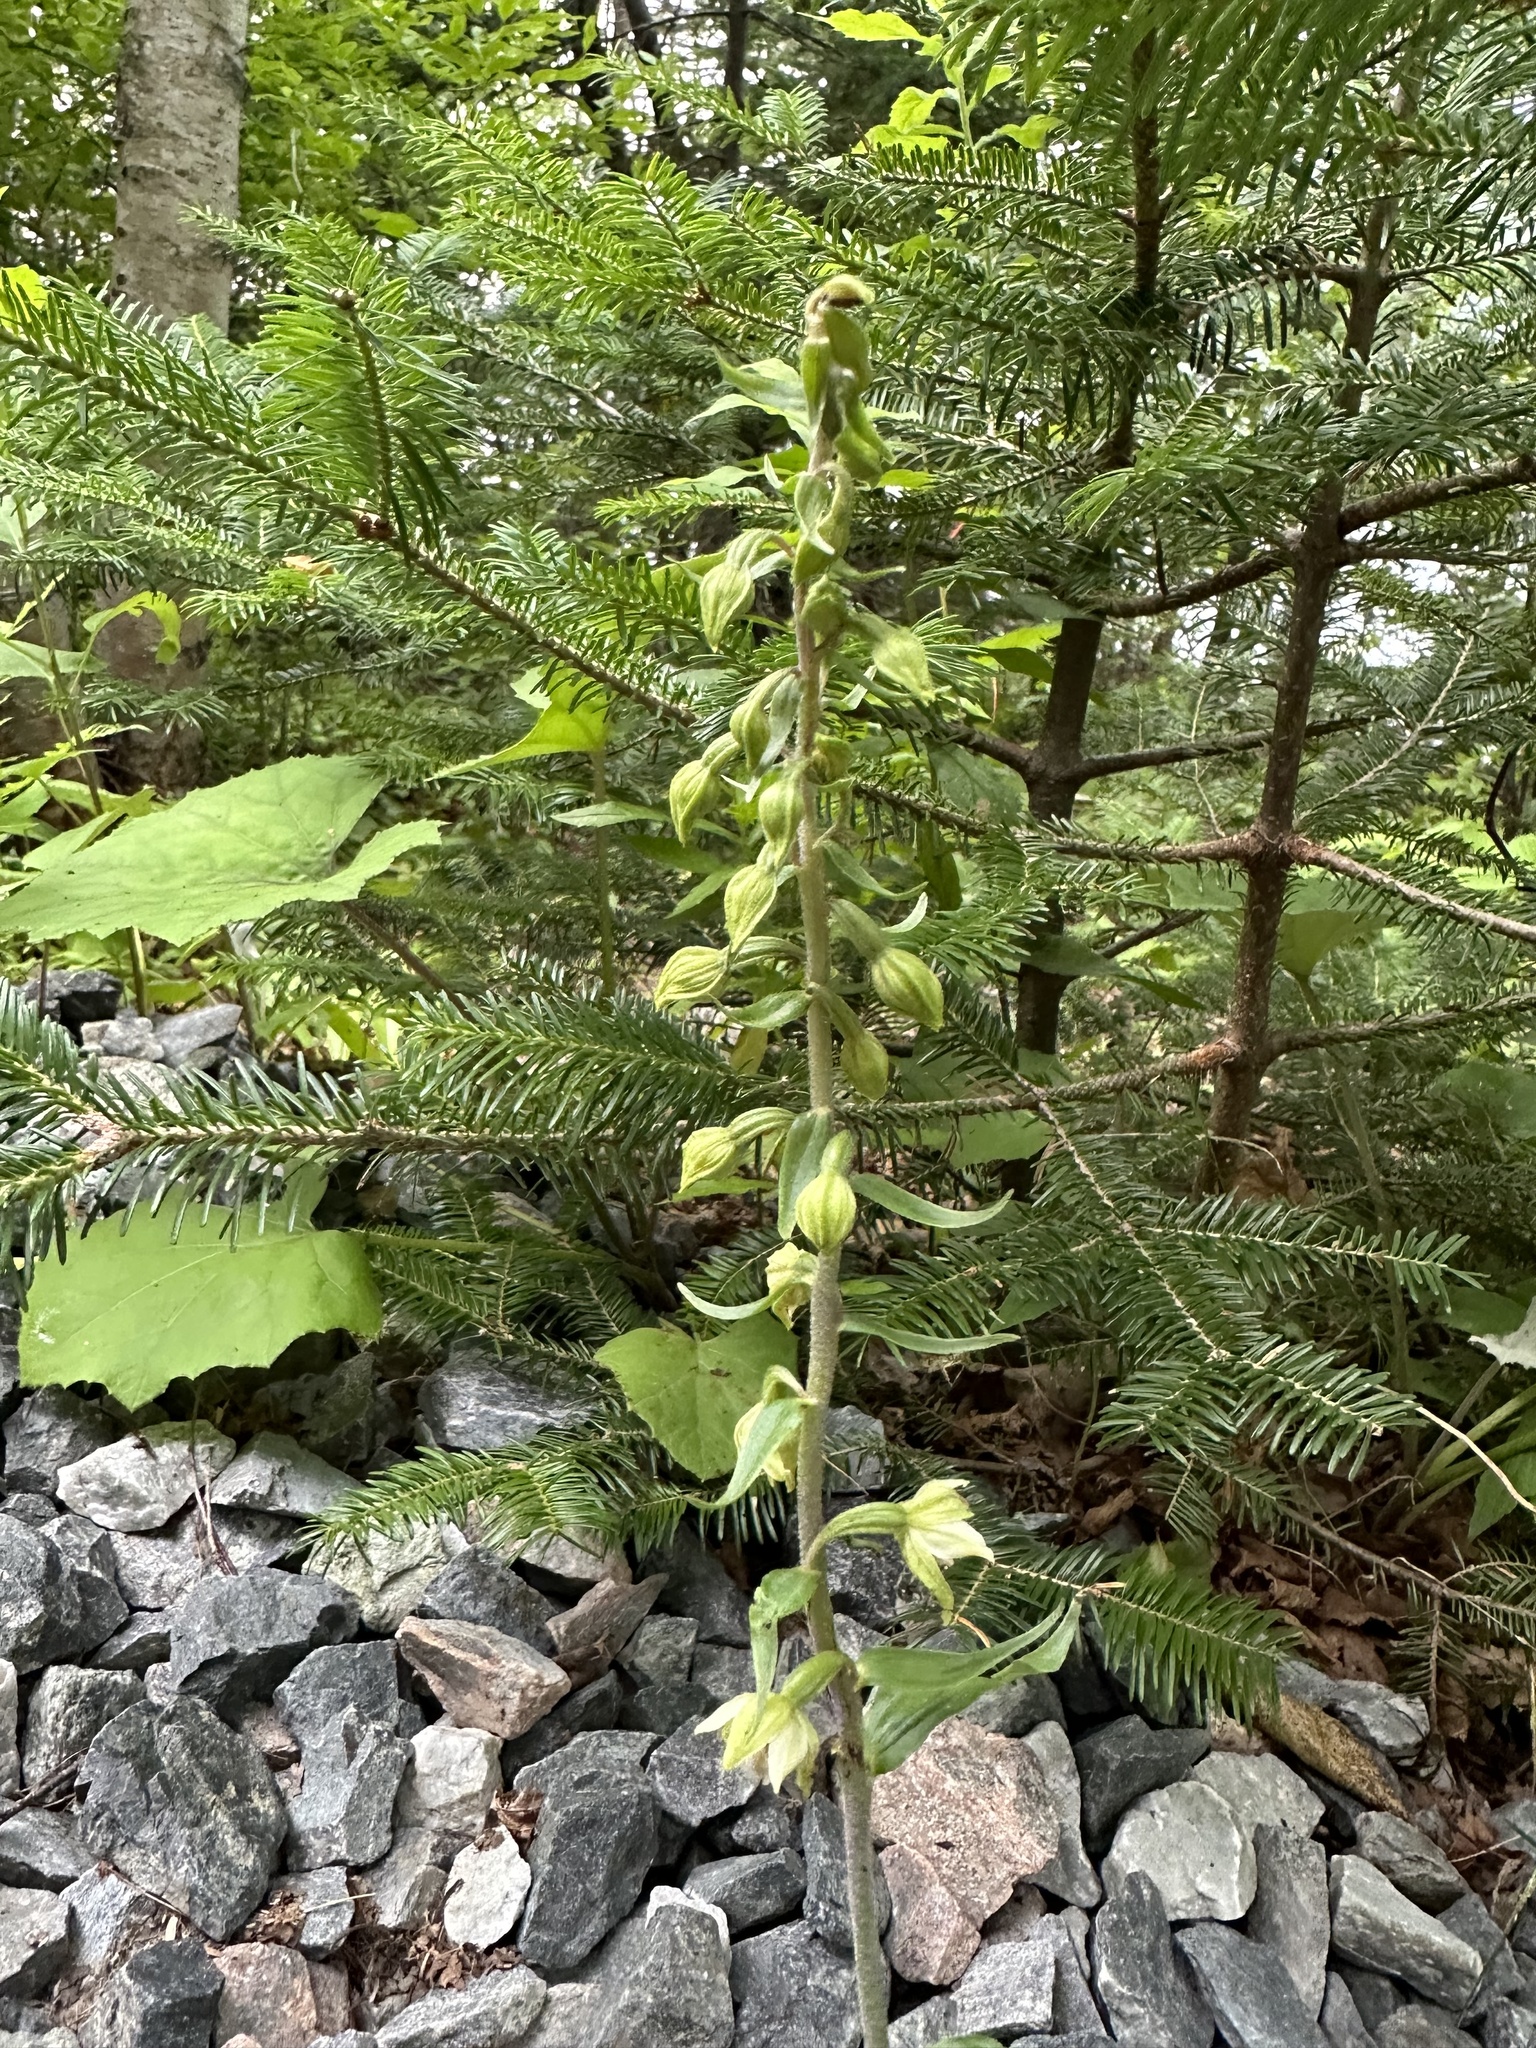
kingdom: Plantae
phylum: Tracheophyta
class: Liliopsida
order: Asparagales
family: Orchidaceae
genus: Epipactis
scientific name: Epipactis helleborine
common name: Broad-leaved helleborine
